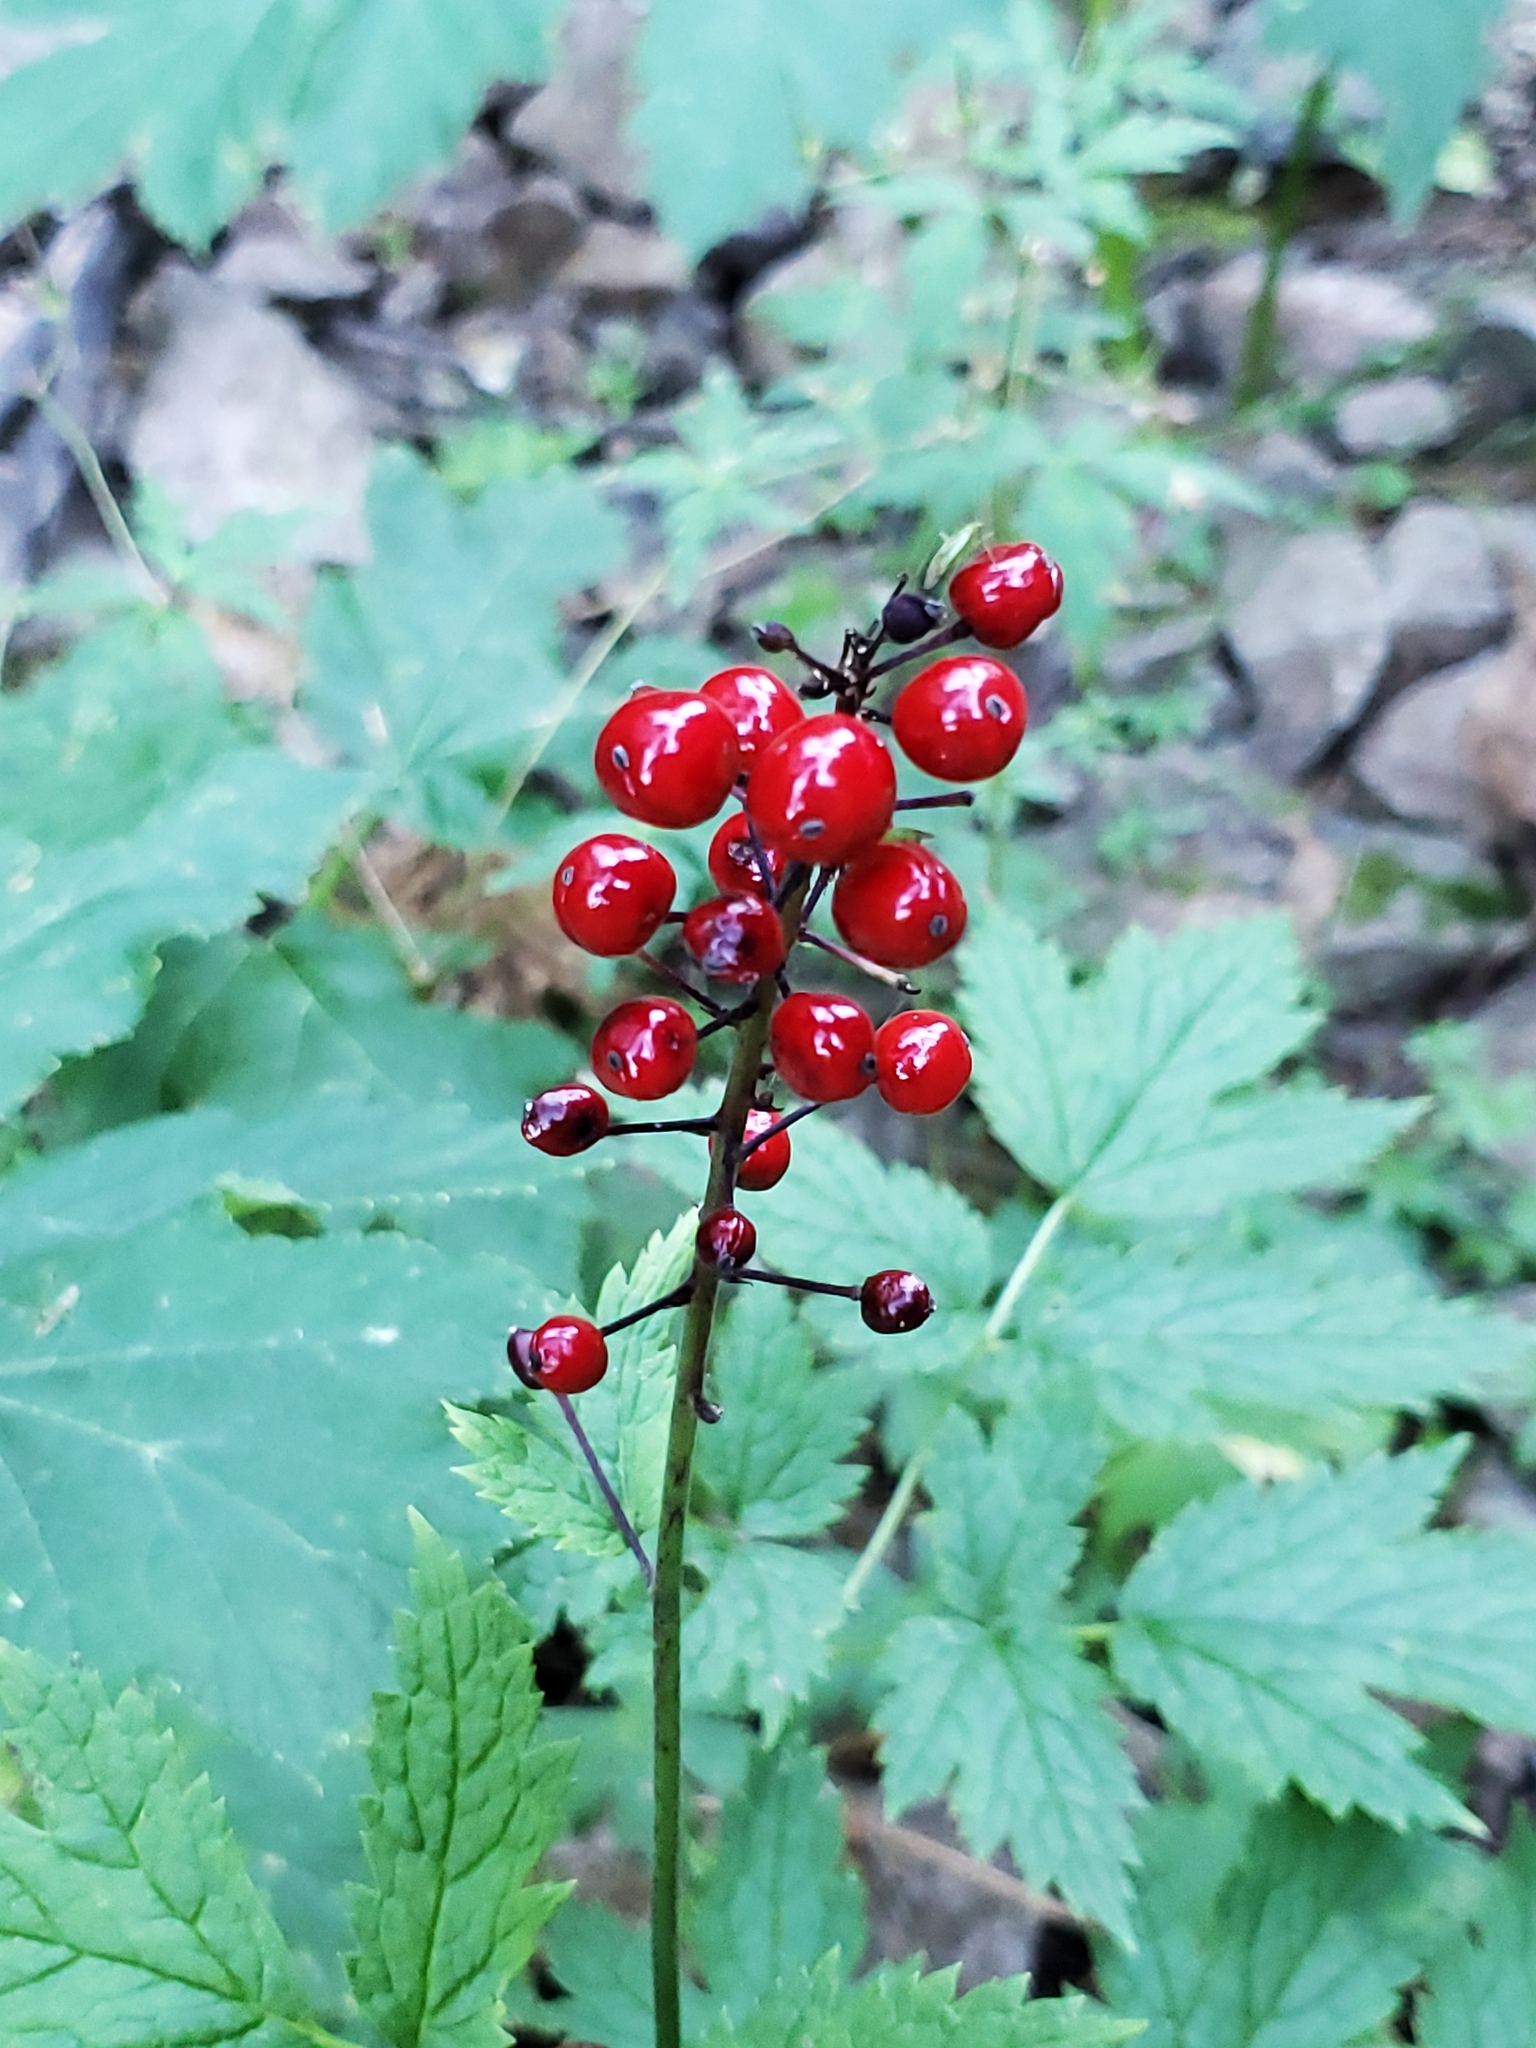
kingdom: Plantae
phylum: Tracheophyta
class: Magnoliopsida
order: Ranunculales
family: Ranunculaceae
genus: Actaea
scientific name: Actaea rubra
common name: Red baneberry
